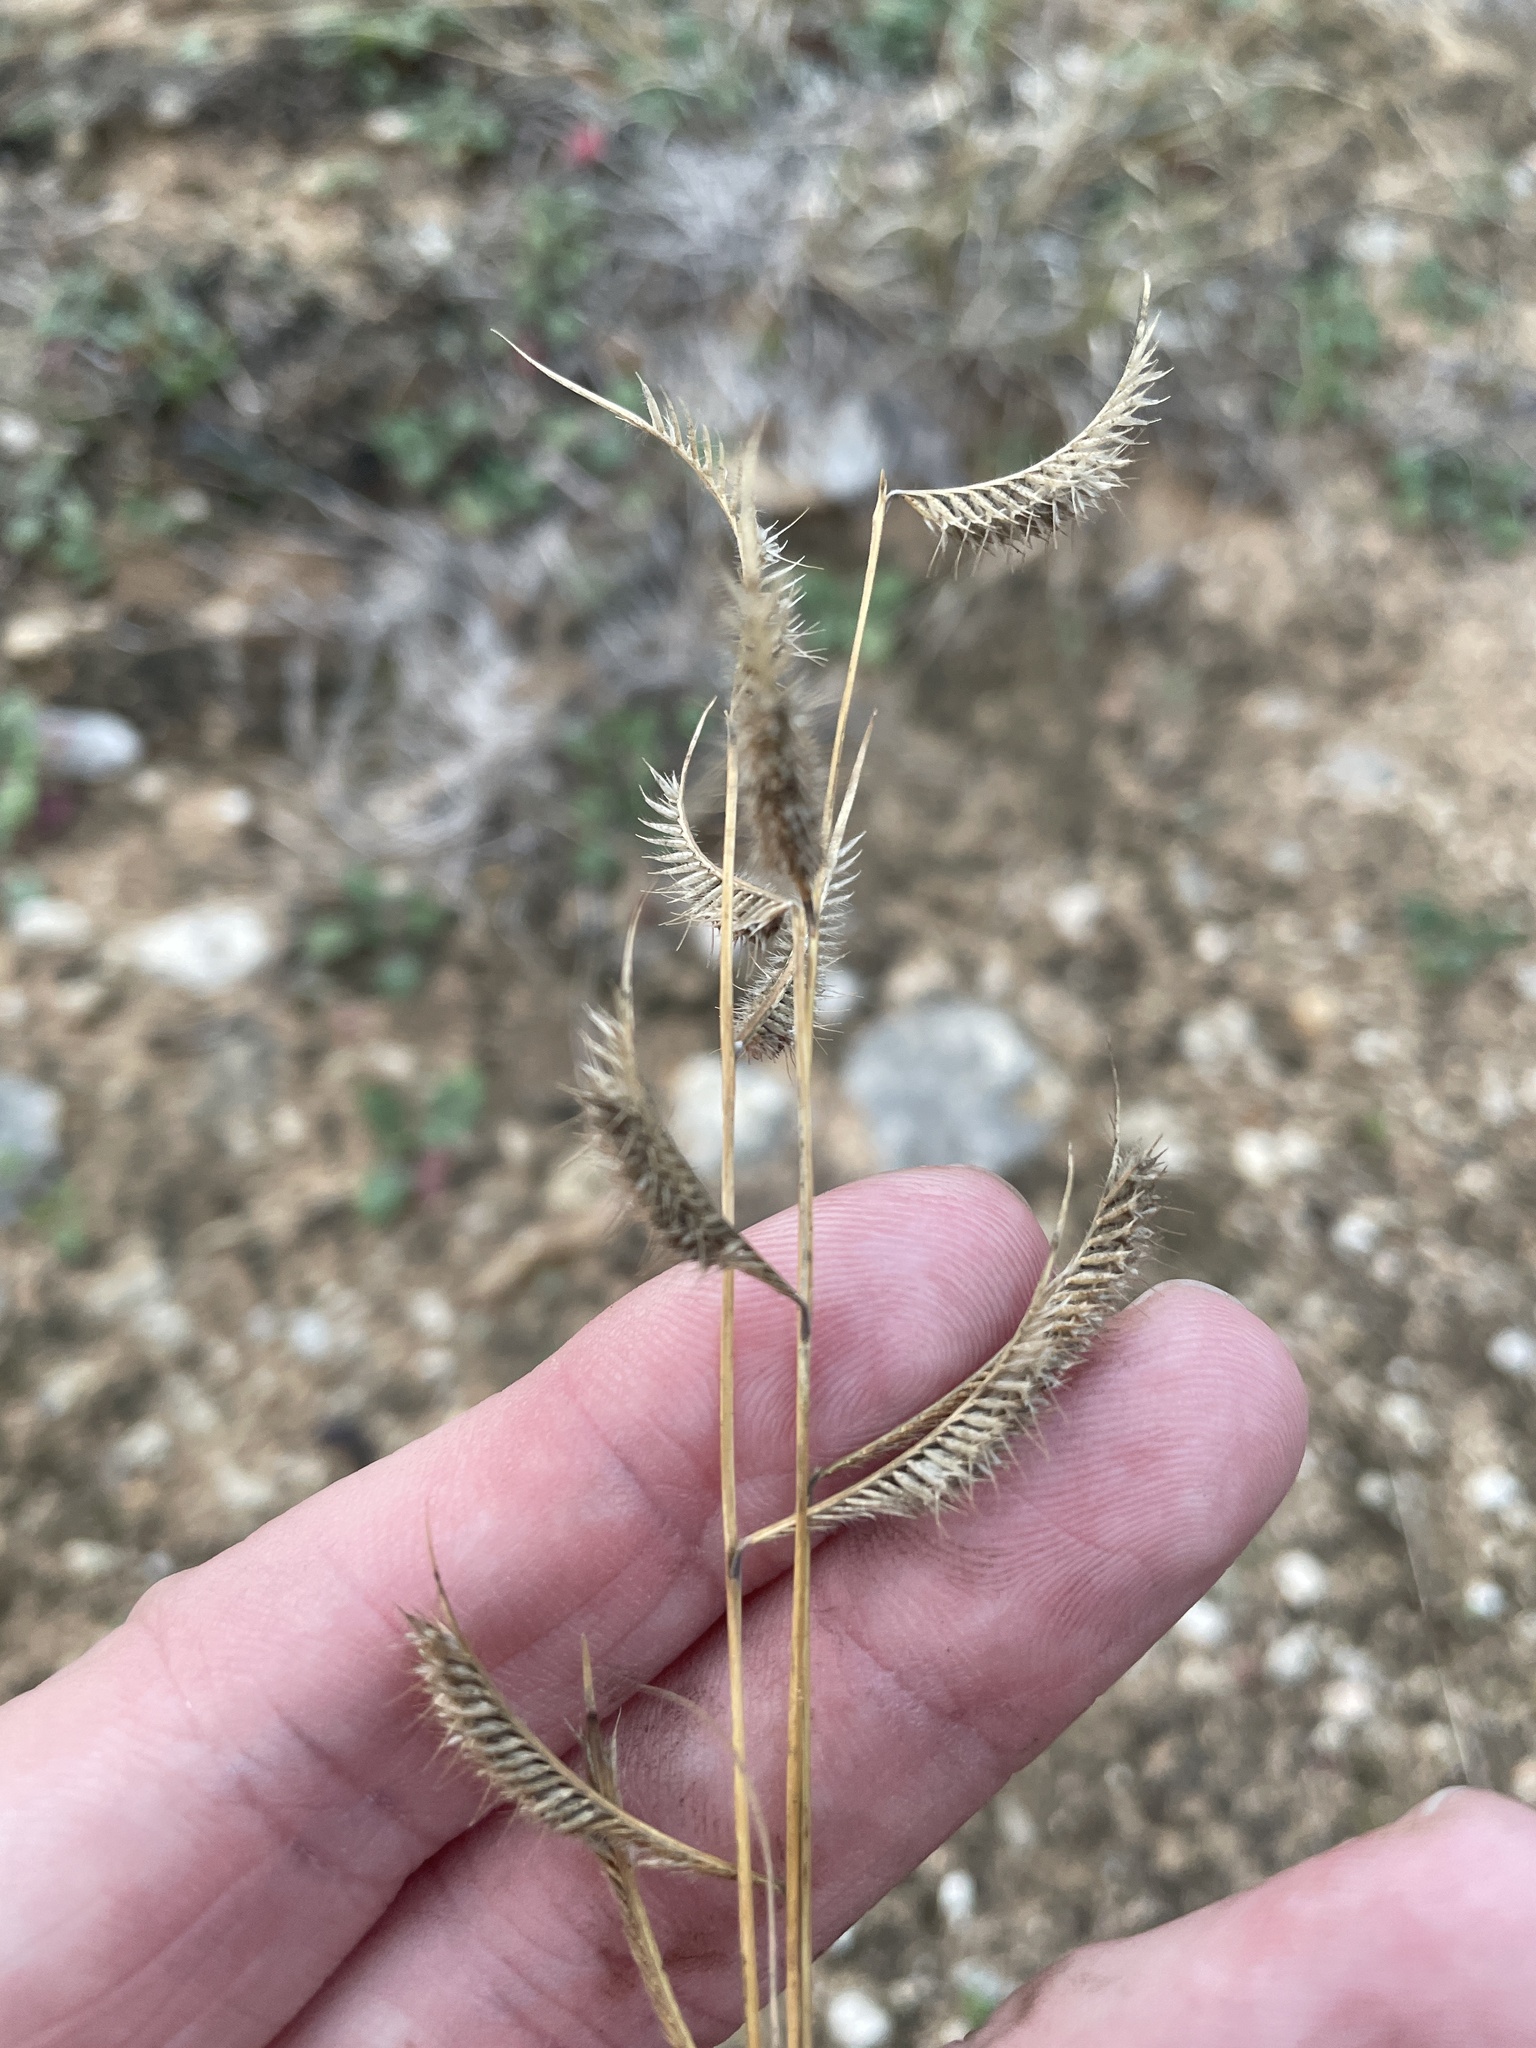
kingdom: Plantae
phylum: Tracheophyta
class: Liliopsida
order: Poales
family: Poaceae
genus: Bouteloua
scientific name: Bouteloua hirsuta
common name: Hairy grama
